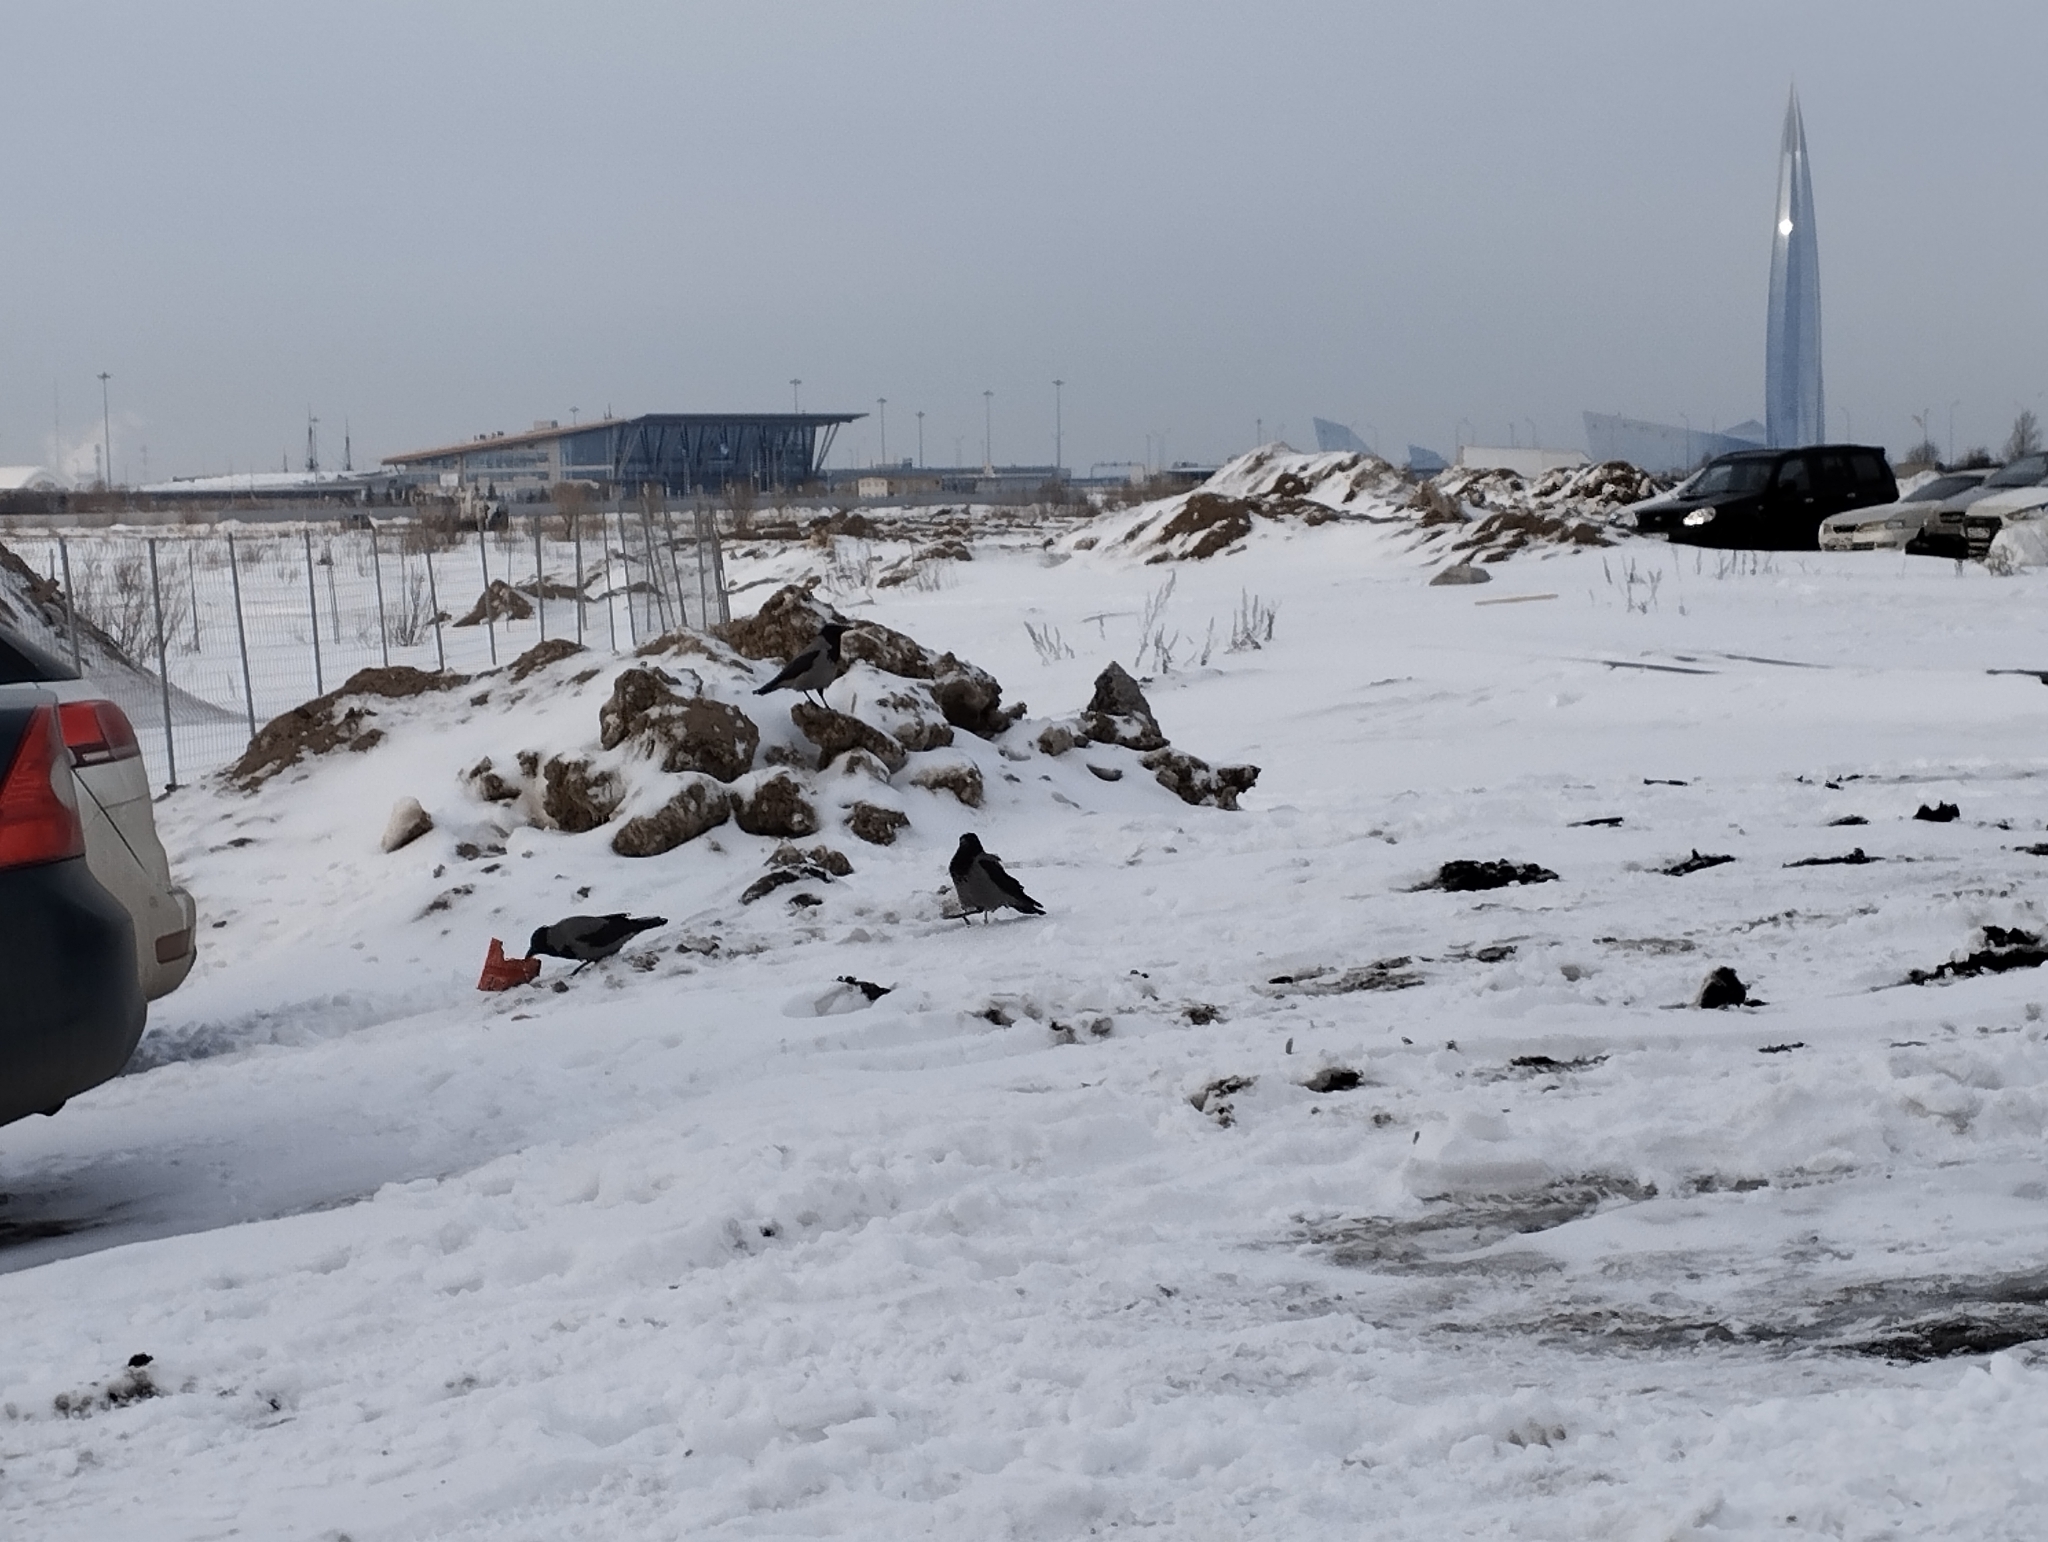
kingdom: Animalia
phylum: Chordata
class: Aves
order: Passeriformes
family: Corvidae
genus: Corvus
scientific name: Corvus cornix
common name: Hooded crow
